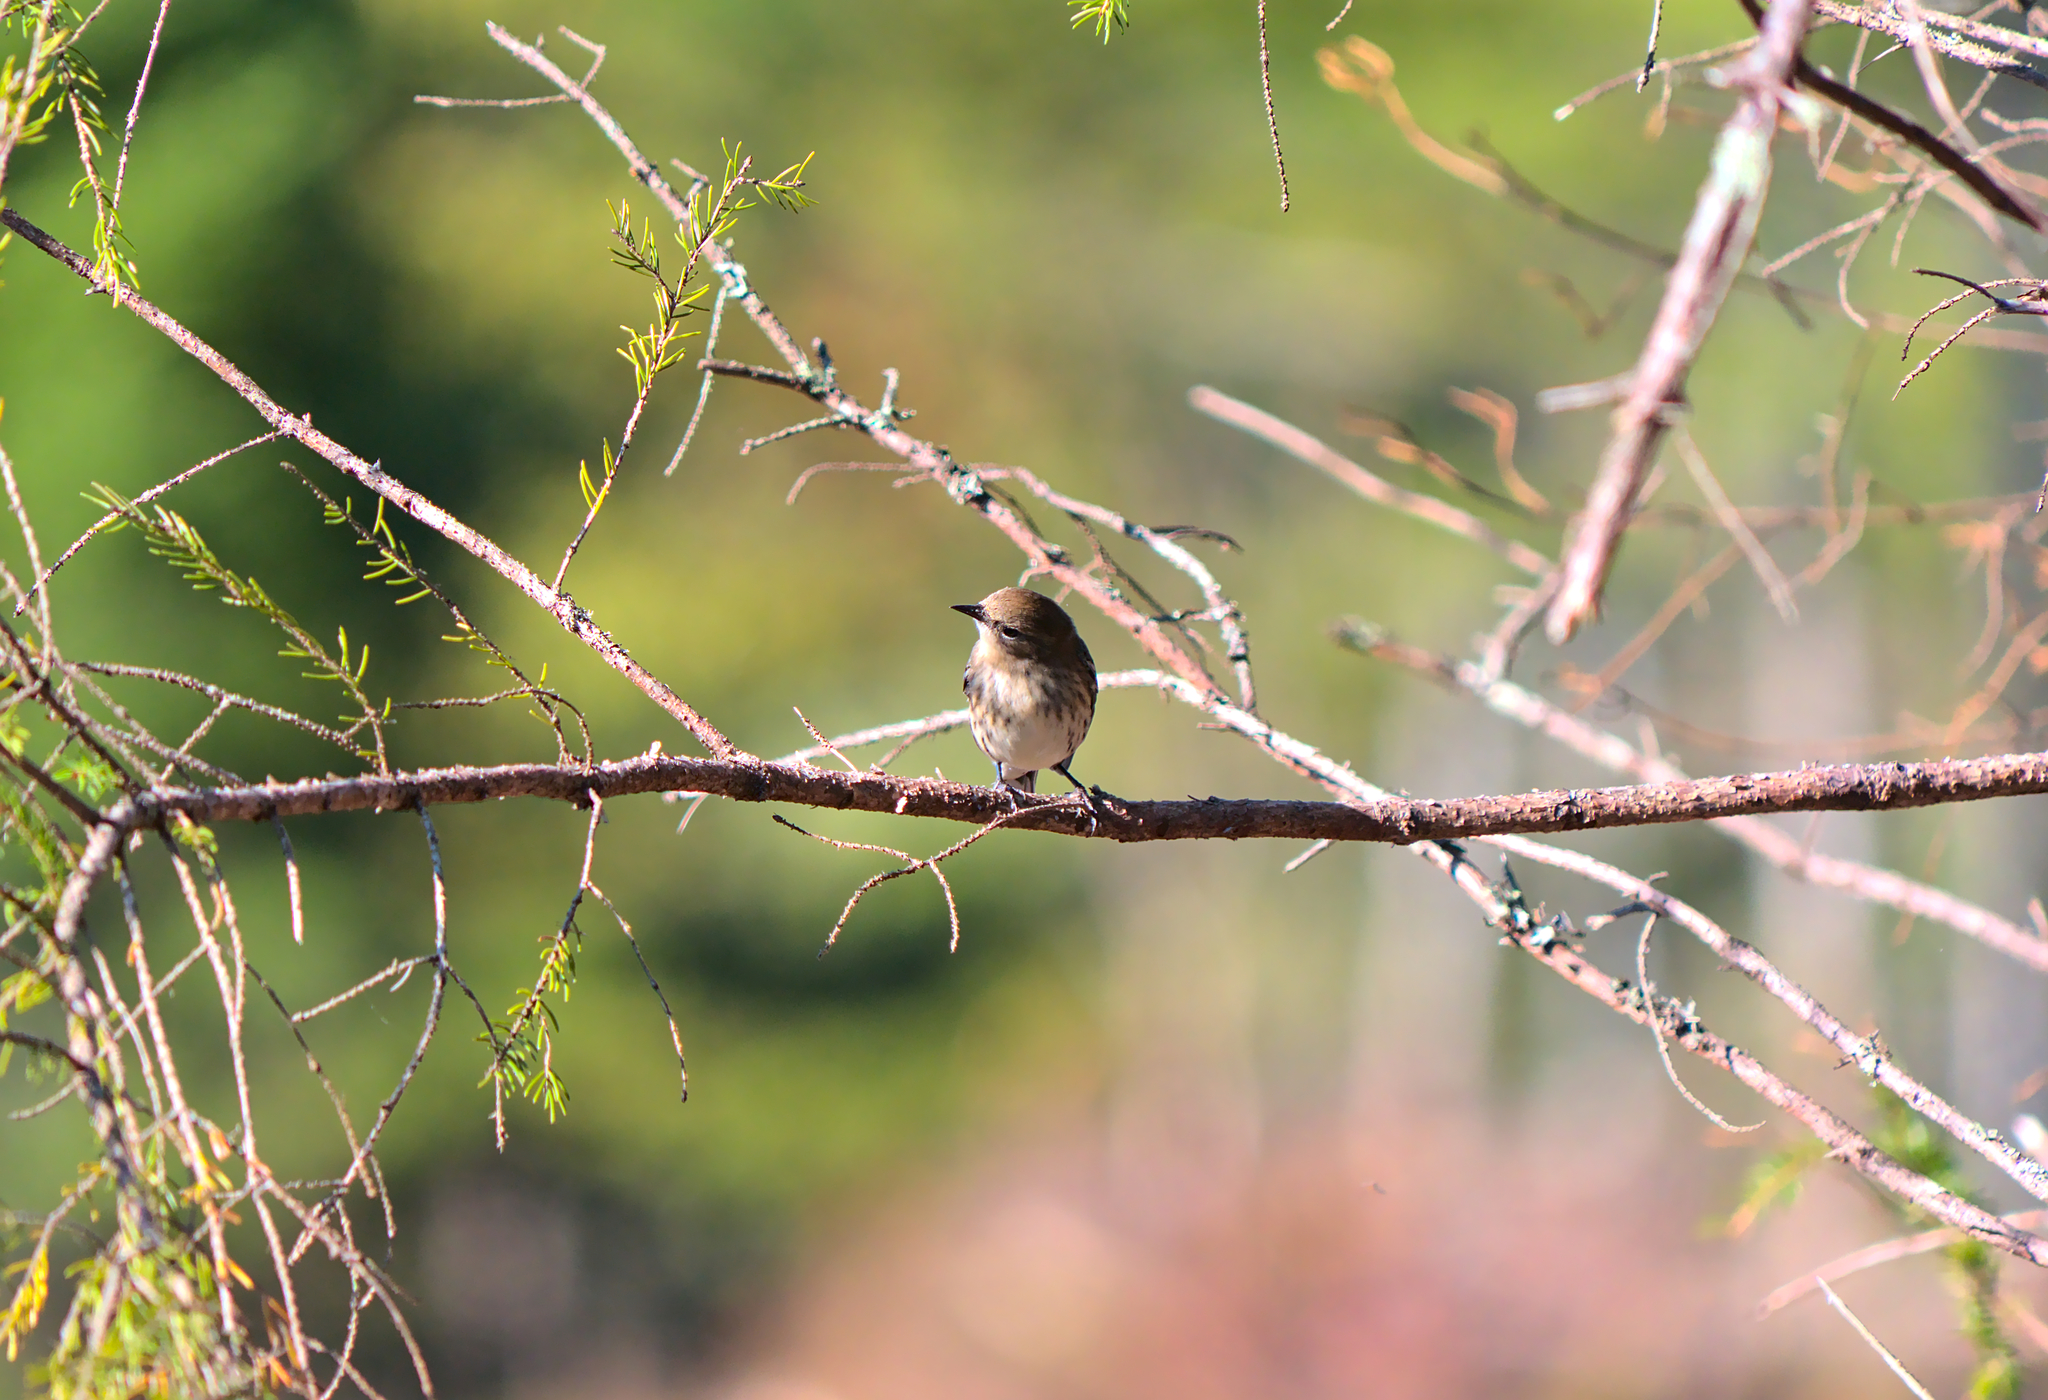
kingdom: Animalia
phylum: Chordata
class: Aves
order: Passeriformes
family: Parulidae
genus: Setophaga
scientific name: Setophaga coronata
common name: Myrtle warbler
